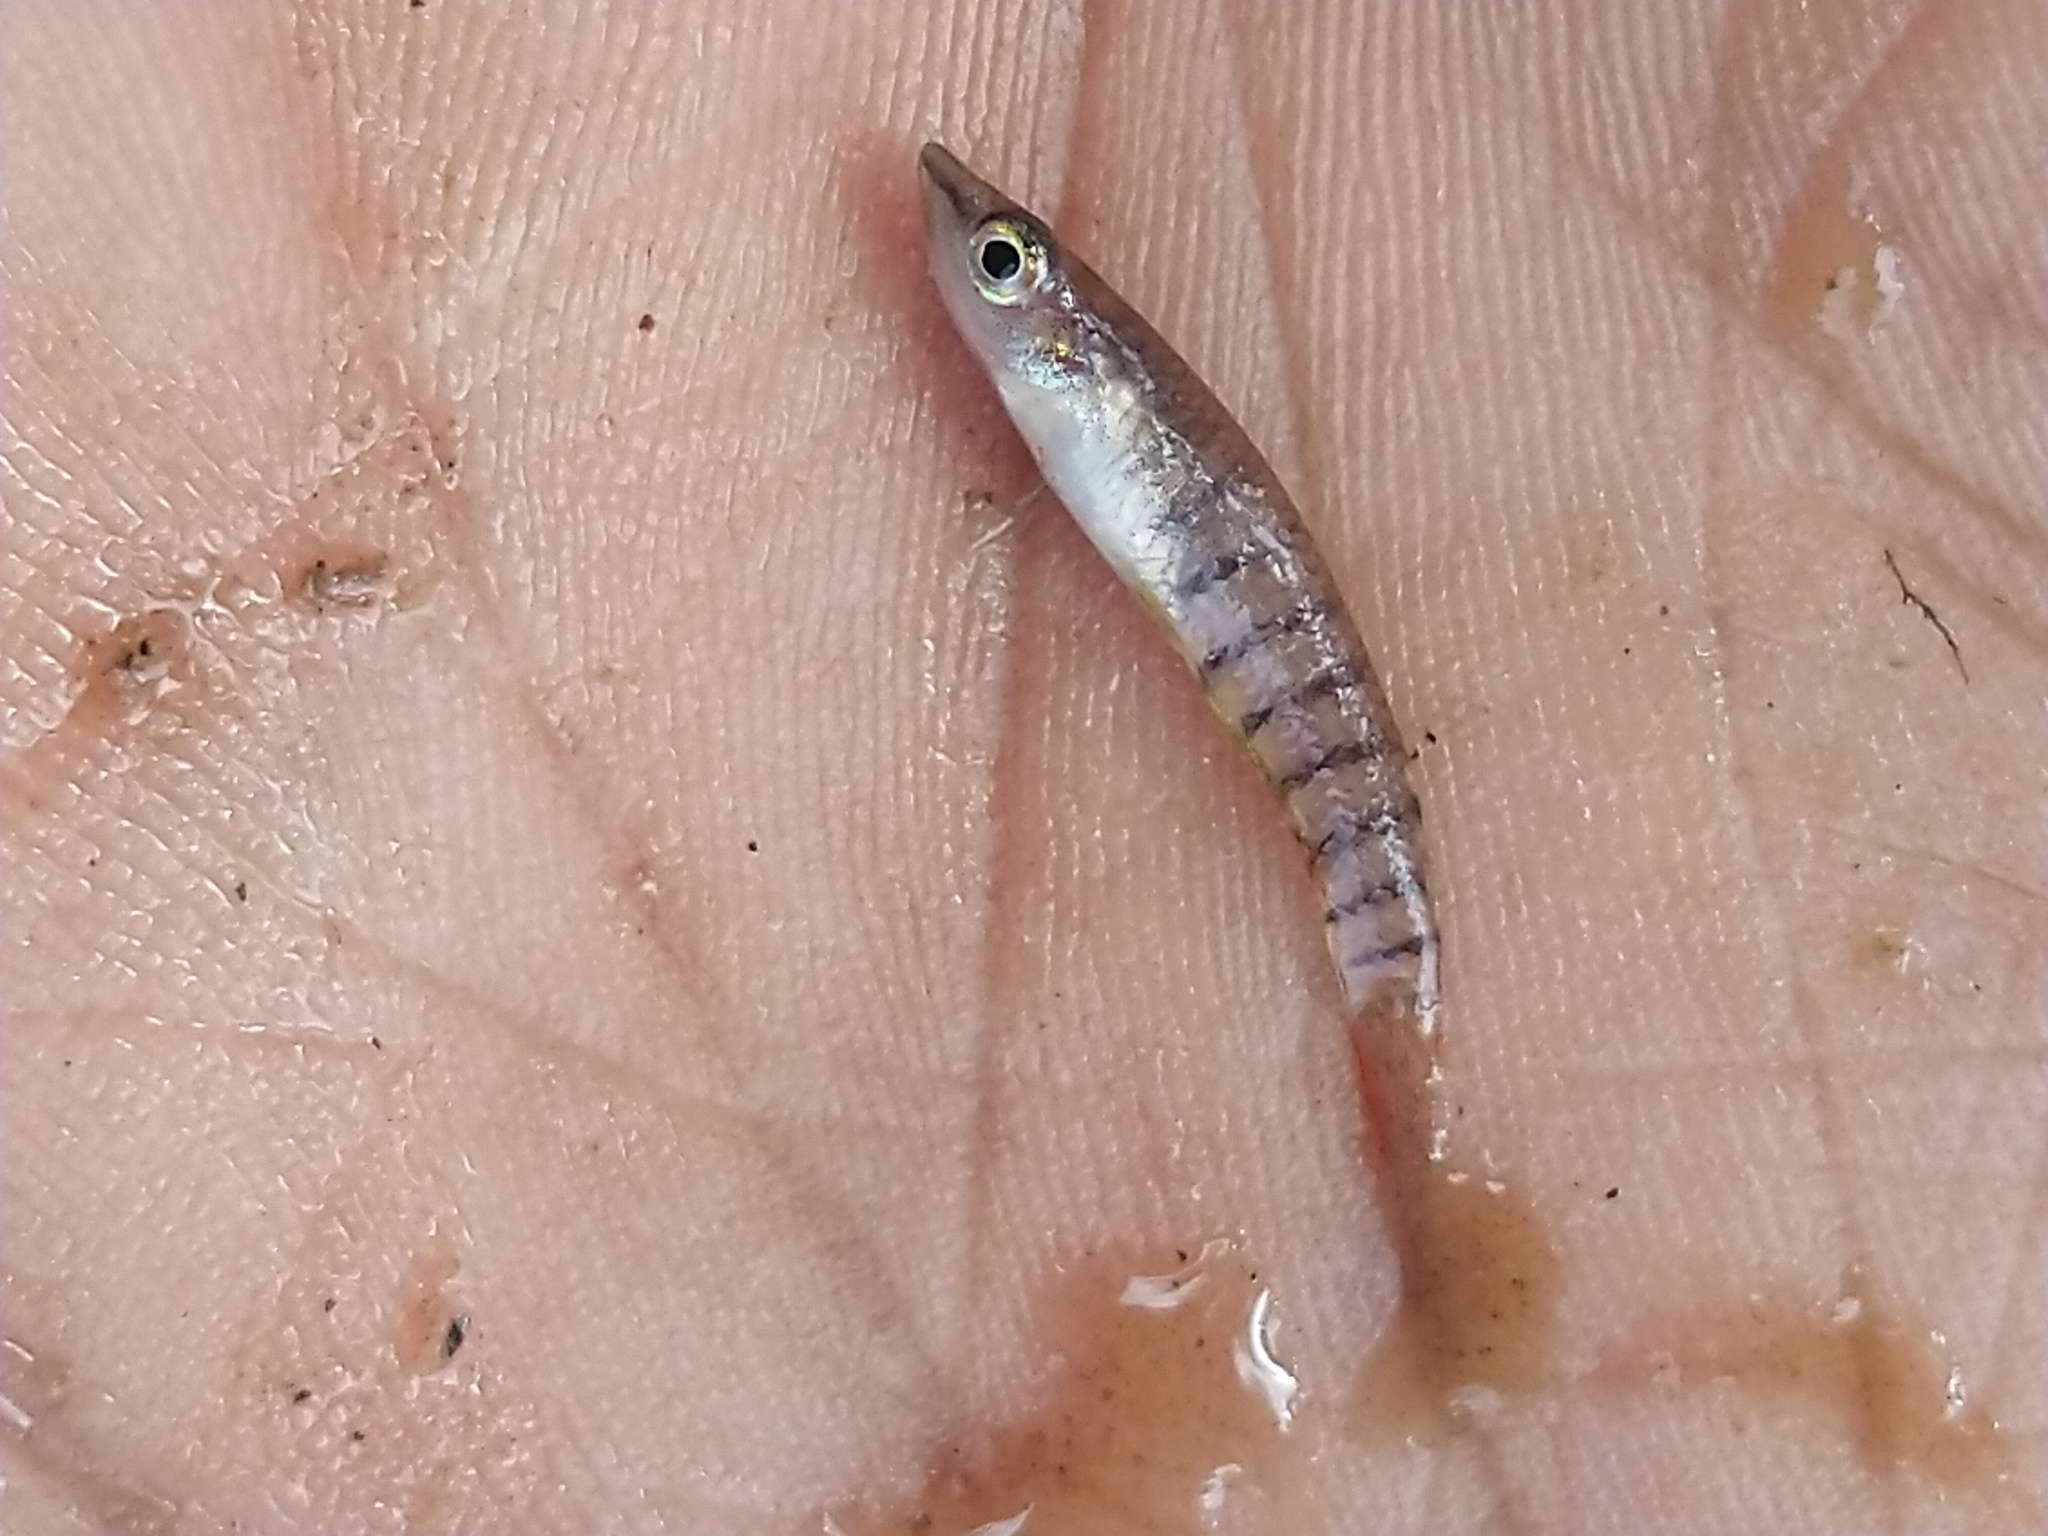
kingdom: Animalia
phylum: Chordata
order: Cyprinodontiformes
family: Aplocheilidae
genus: Aplocheilus
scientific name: Aplocheilus lineatus
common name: Striped panchax
